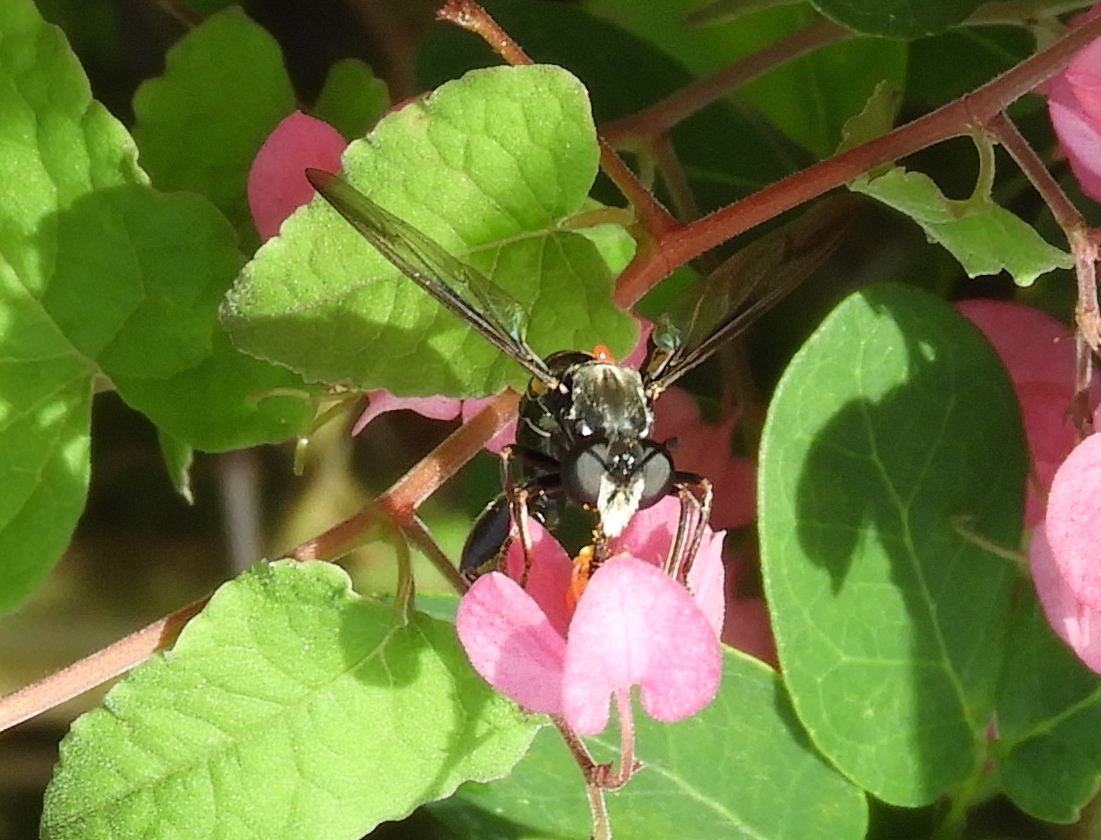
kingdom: Animalia
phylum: Arthropoda
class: Insecta
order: Diptera
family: Mydidae
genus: Mydas
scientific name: Mydas
